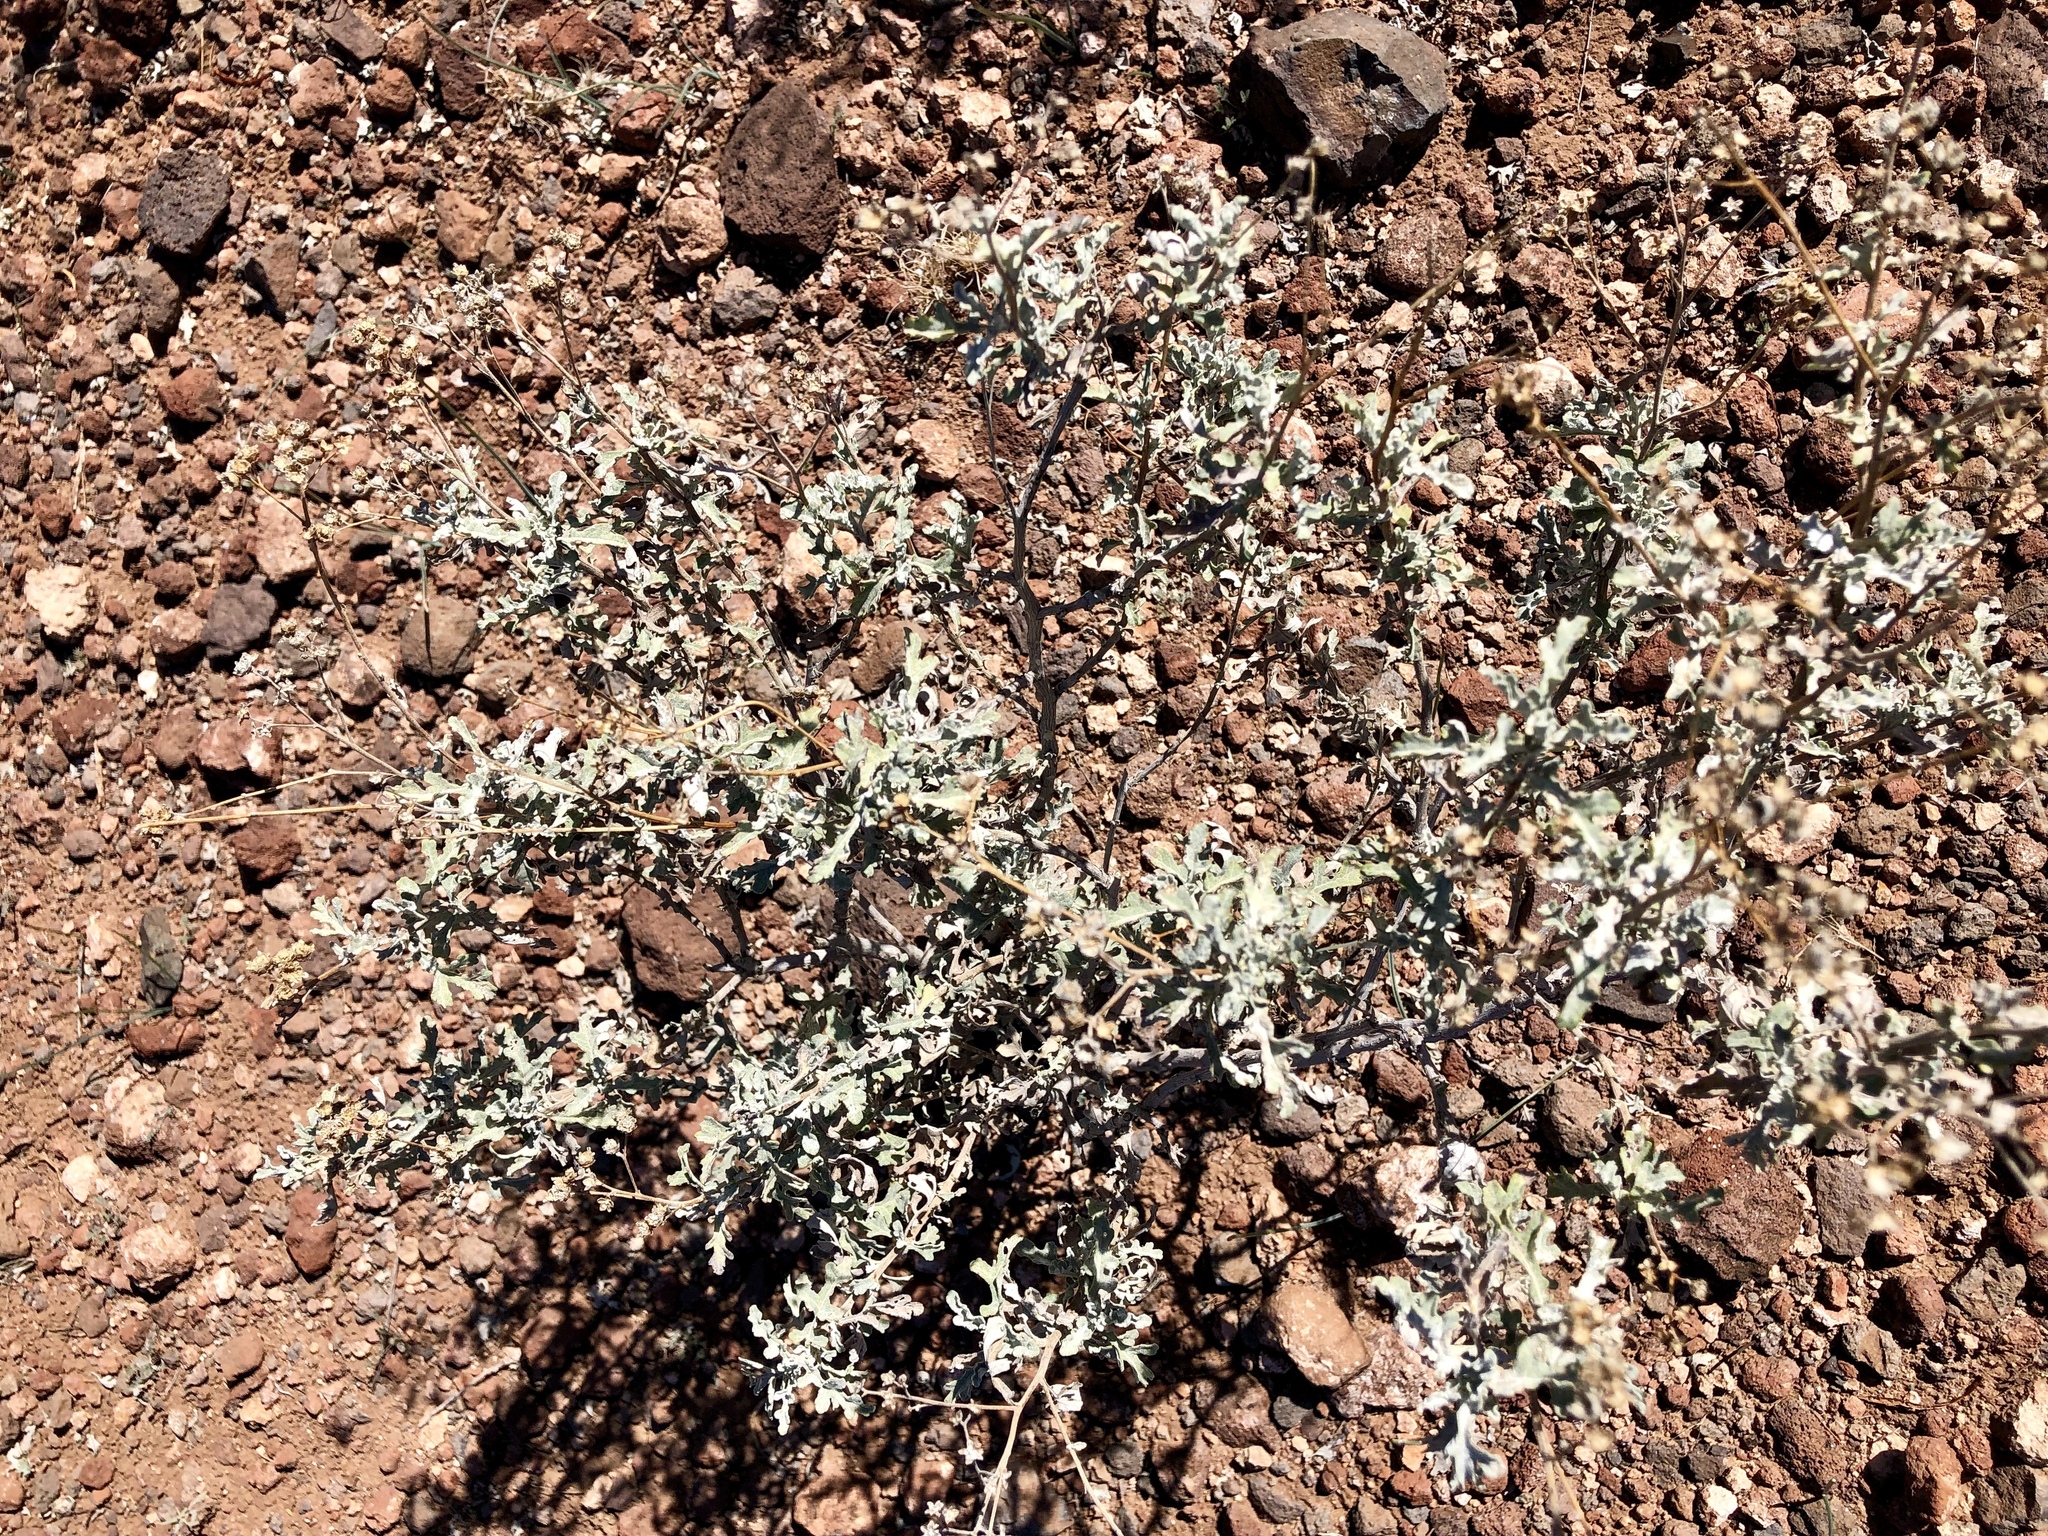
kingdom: Plantae
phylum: Tracheophyta
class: Magnoliopsida
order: Asterales
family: Asteraceae
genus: Parthenium
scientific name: Parthenium incanum
